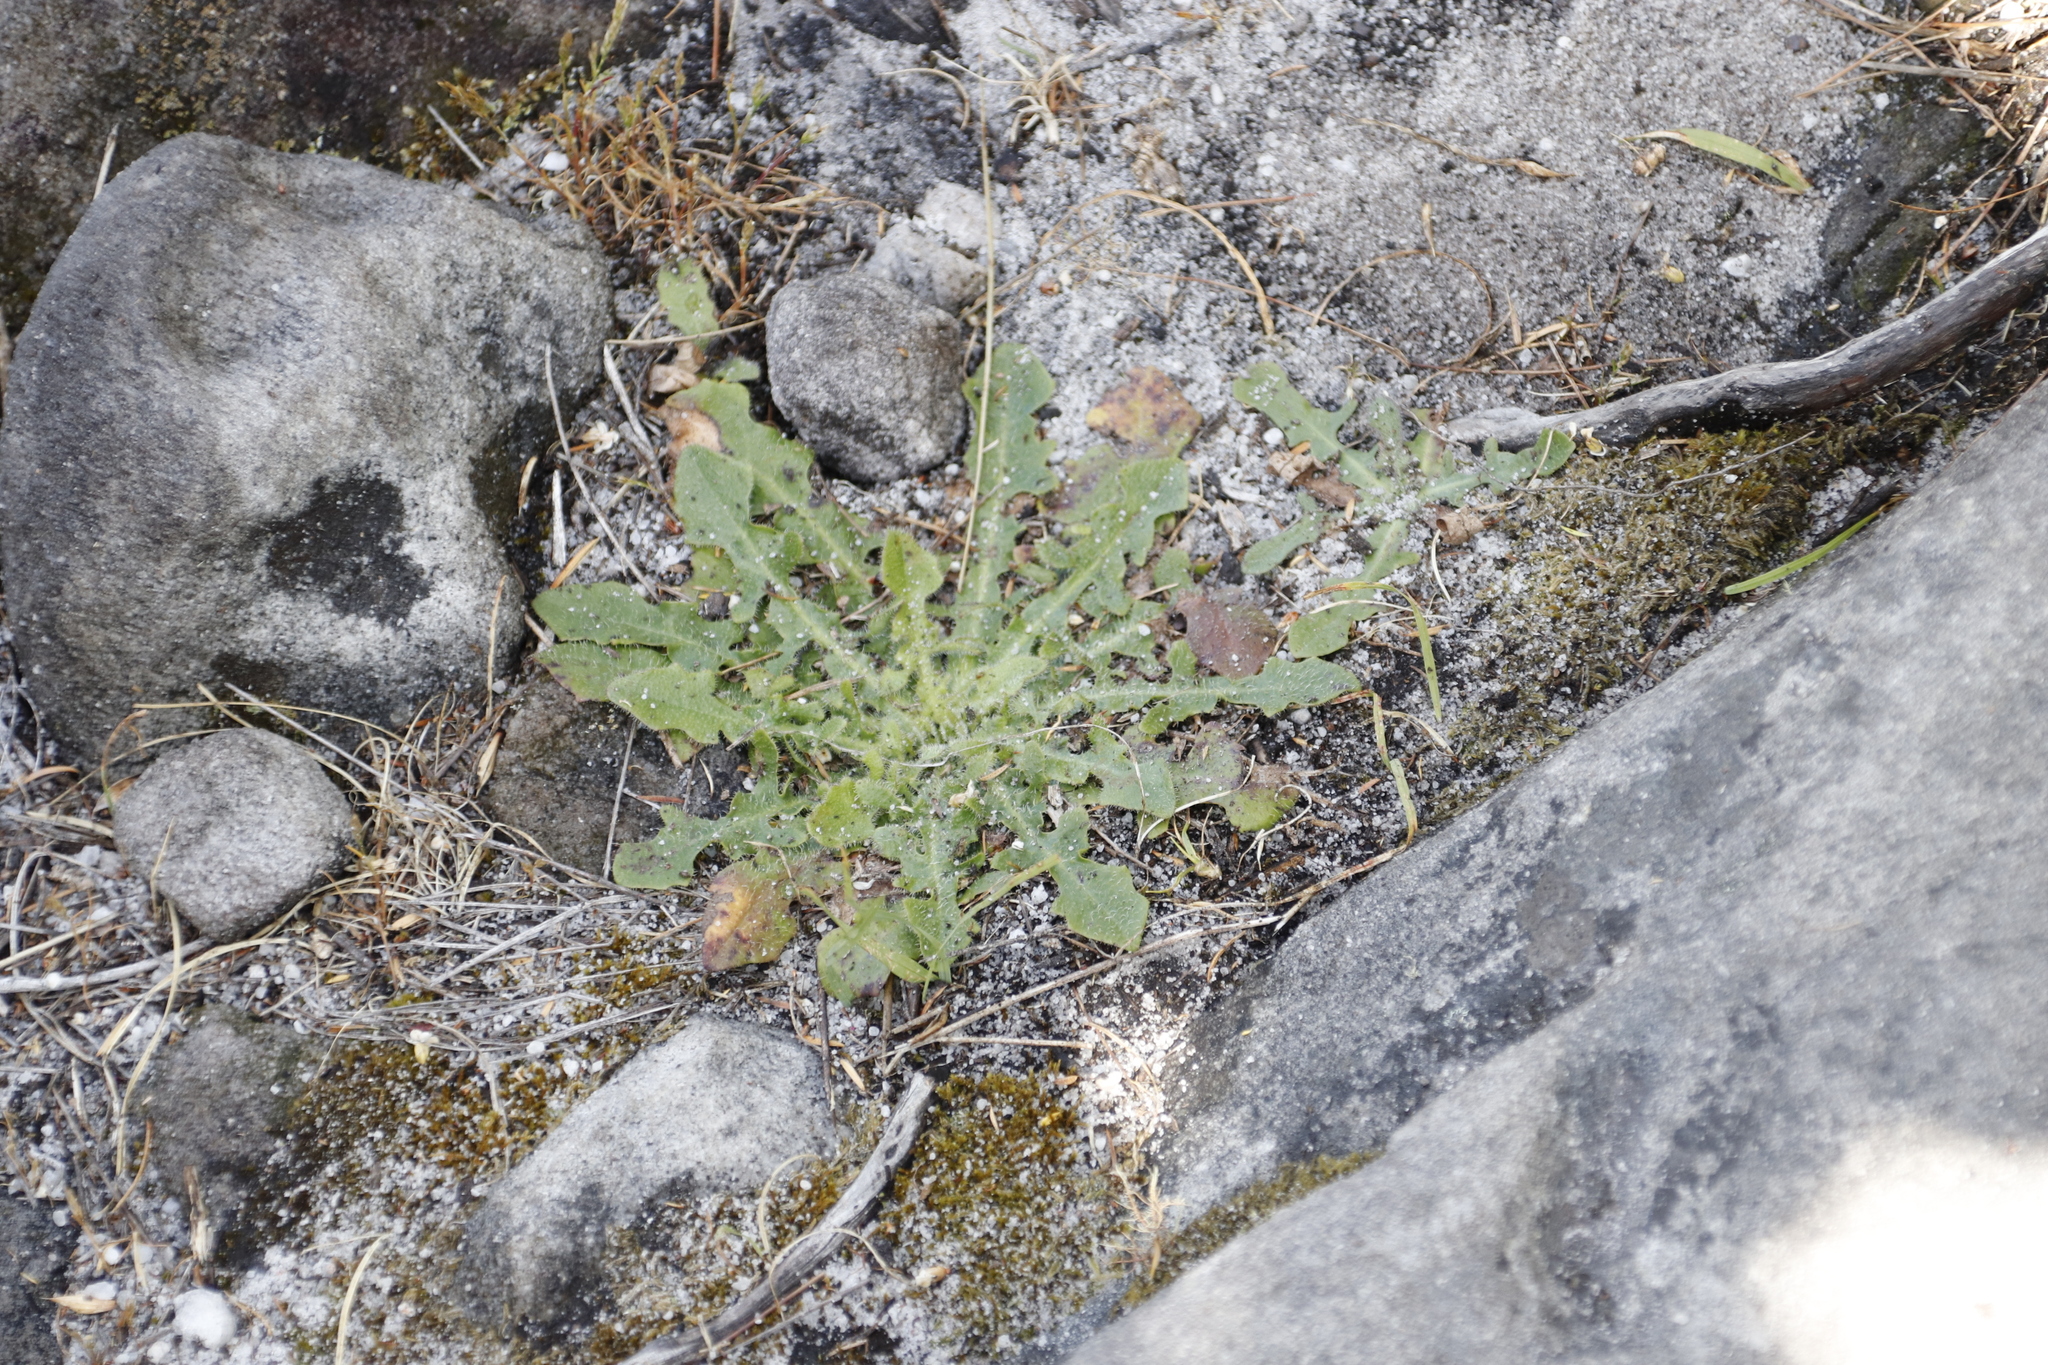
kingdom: Plantae
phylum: Tracheophyta
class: Magnoliopsida
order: Asterales
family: Asteraceae
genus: Hypochaeris
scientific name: Hypochaeris radicata
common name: Flatweed
